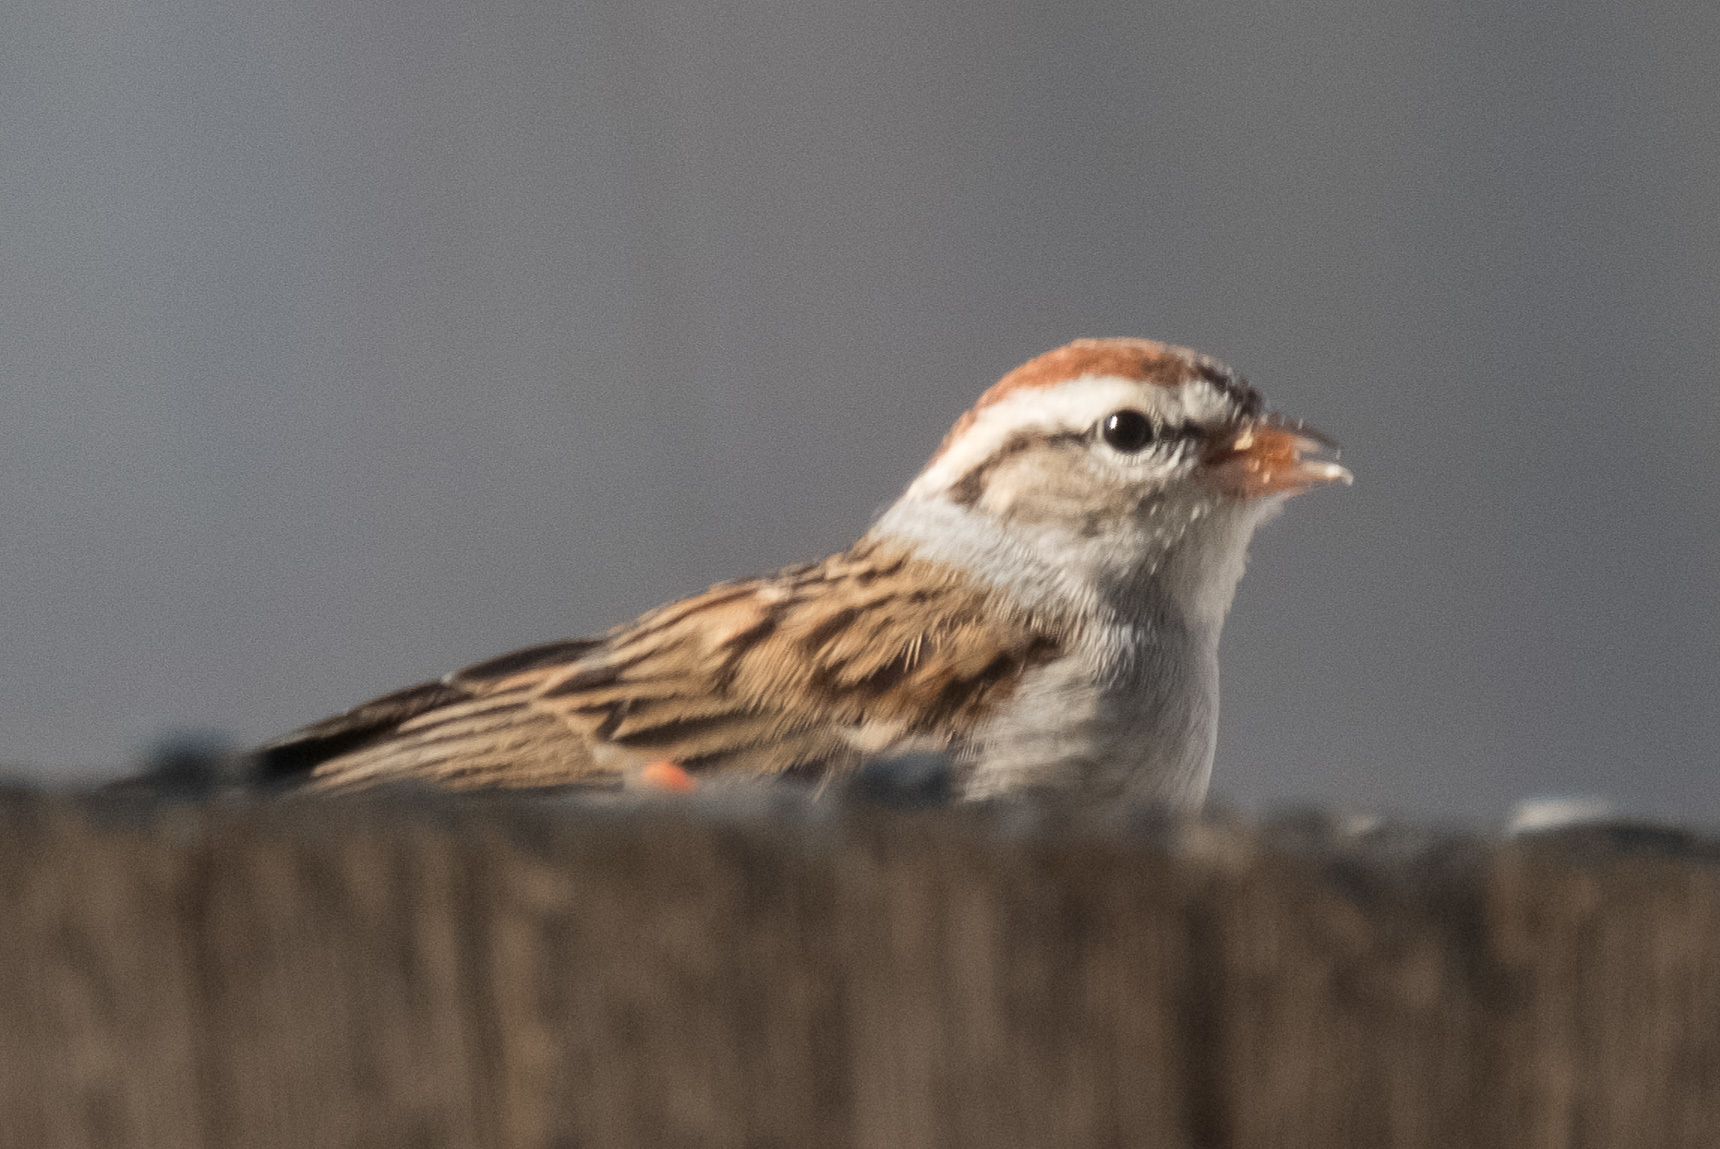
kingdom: Animalia
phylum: Chordata
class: Aves
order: Passeriformes
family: Passerellidae
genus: Spizella
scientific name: Spizella passerina
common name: Chipping sparrow
